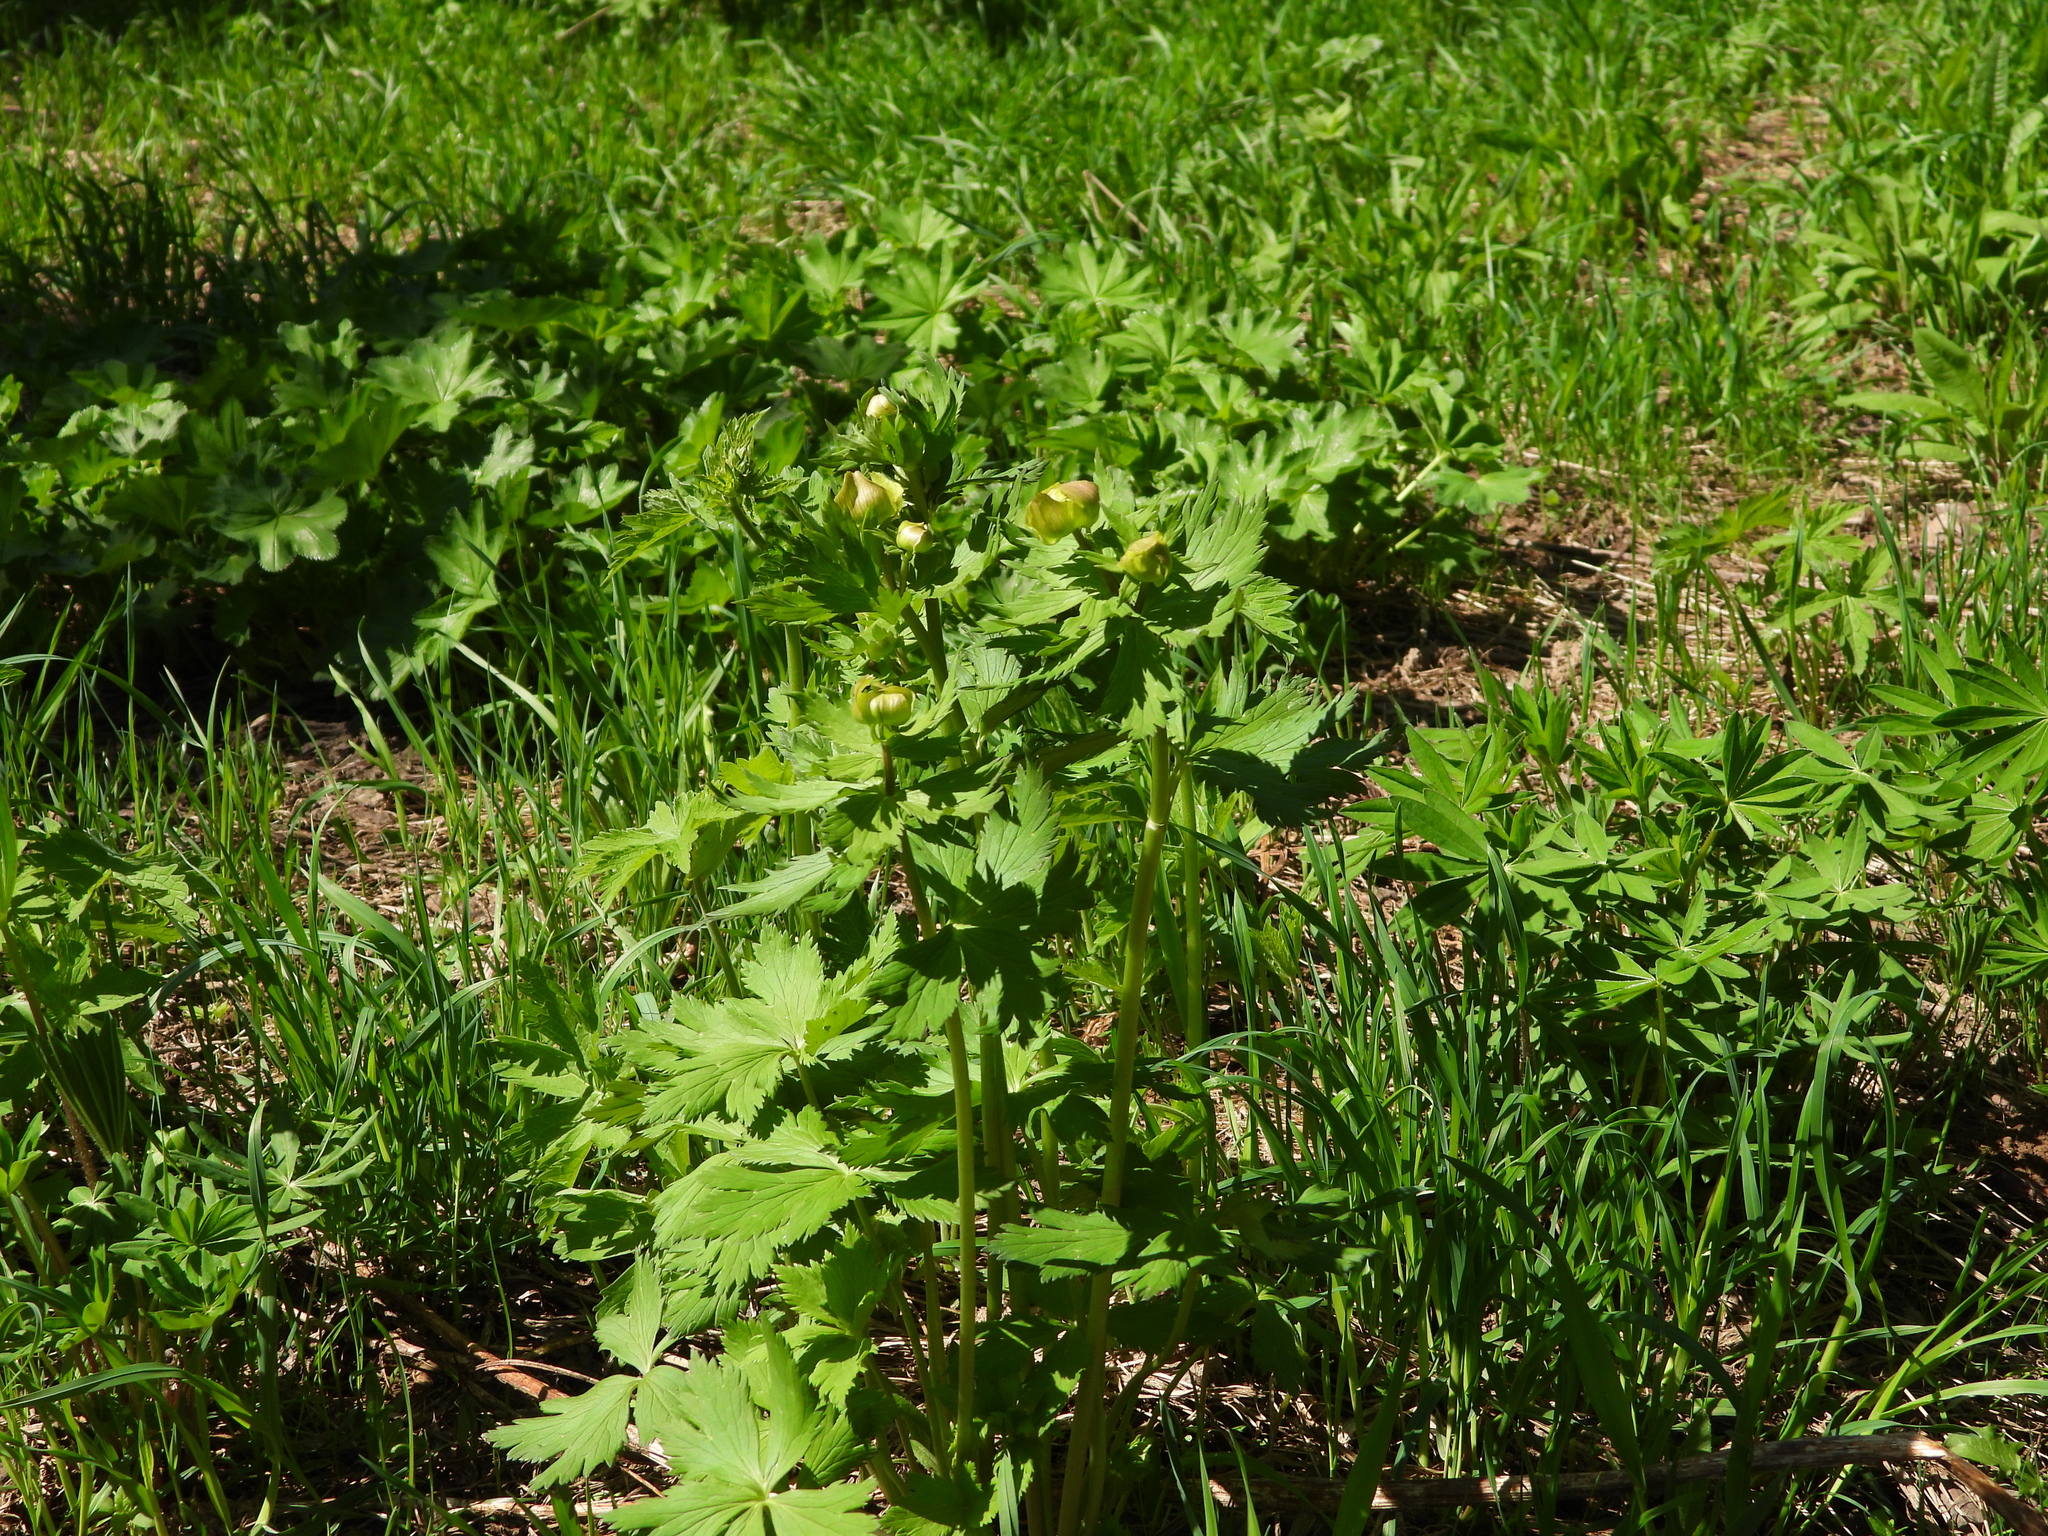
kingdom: Plantae
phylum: Tracheophyta
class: Magnoliopsida
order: Ranunculales
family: Ranunculaceae
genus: Trollius
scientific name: Trollius europaeus
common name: European globeflower
